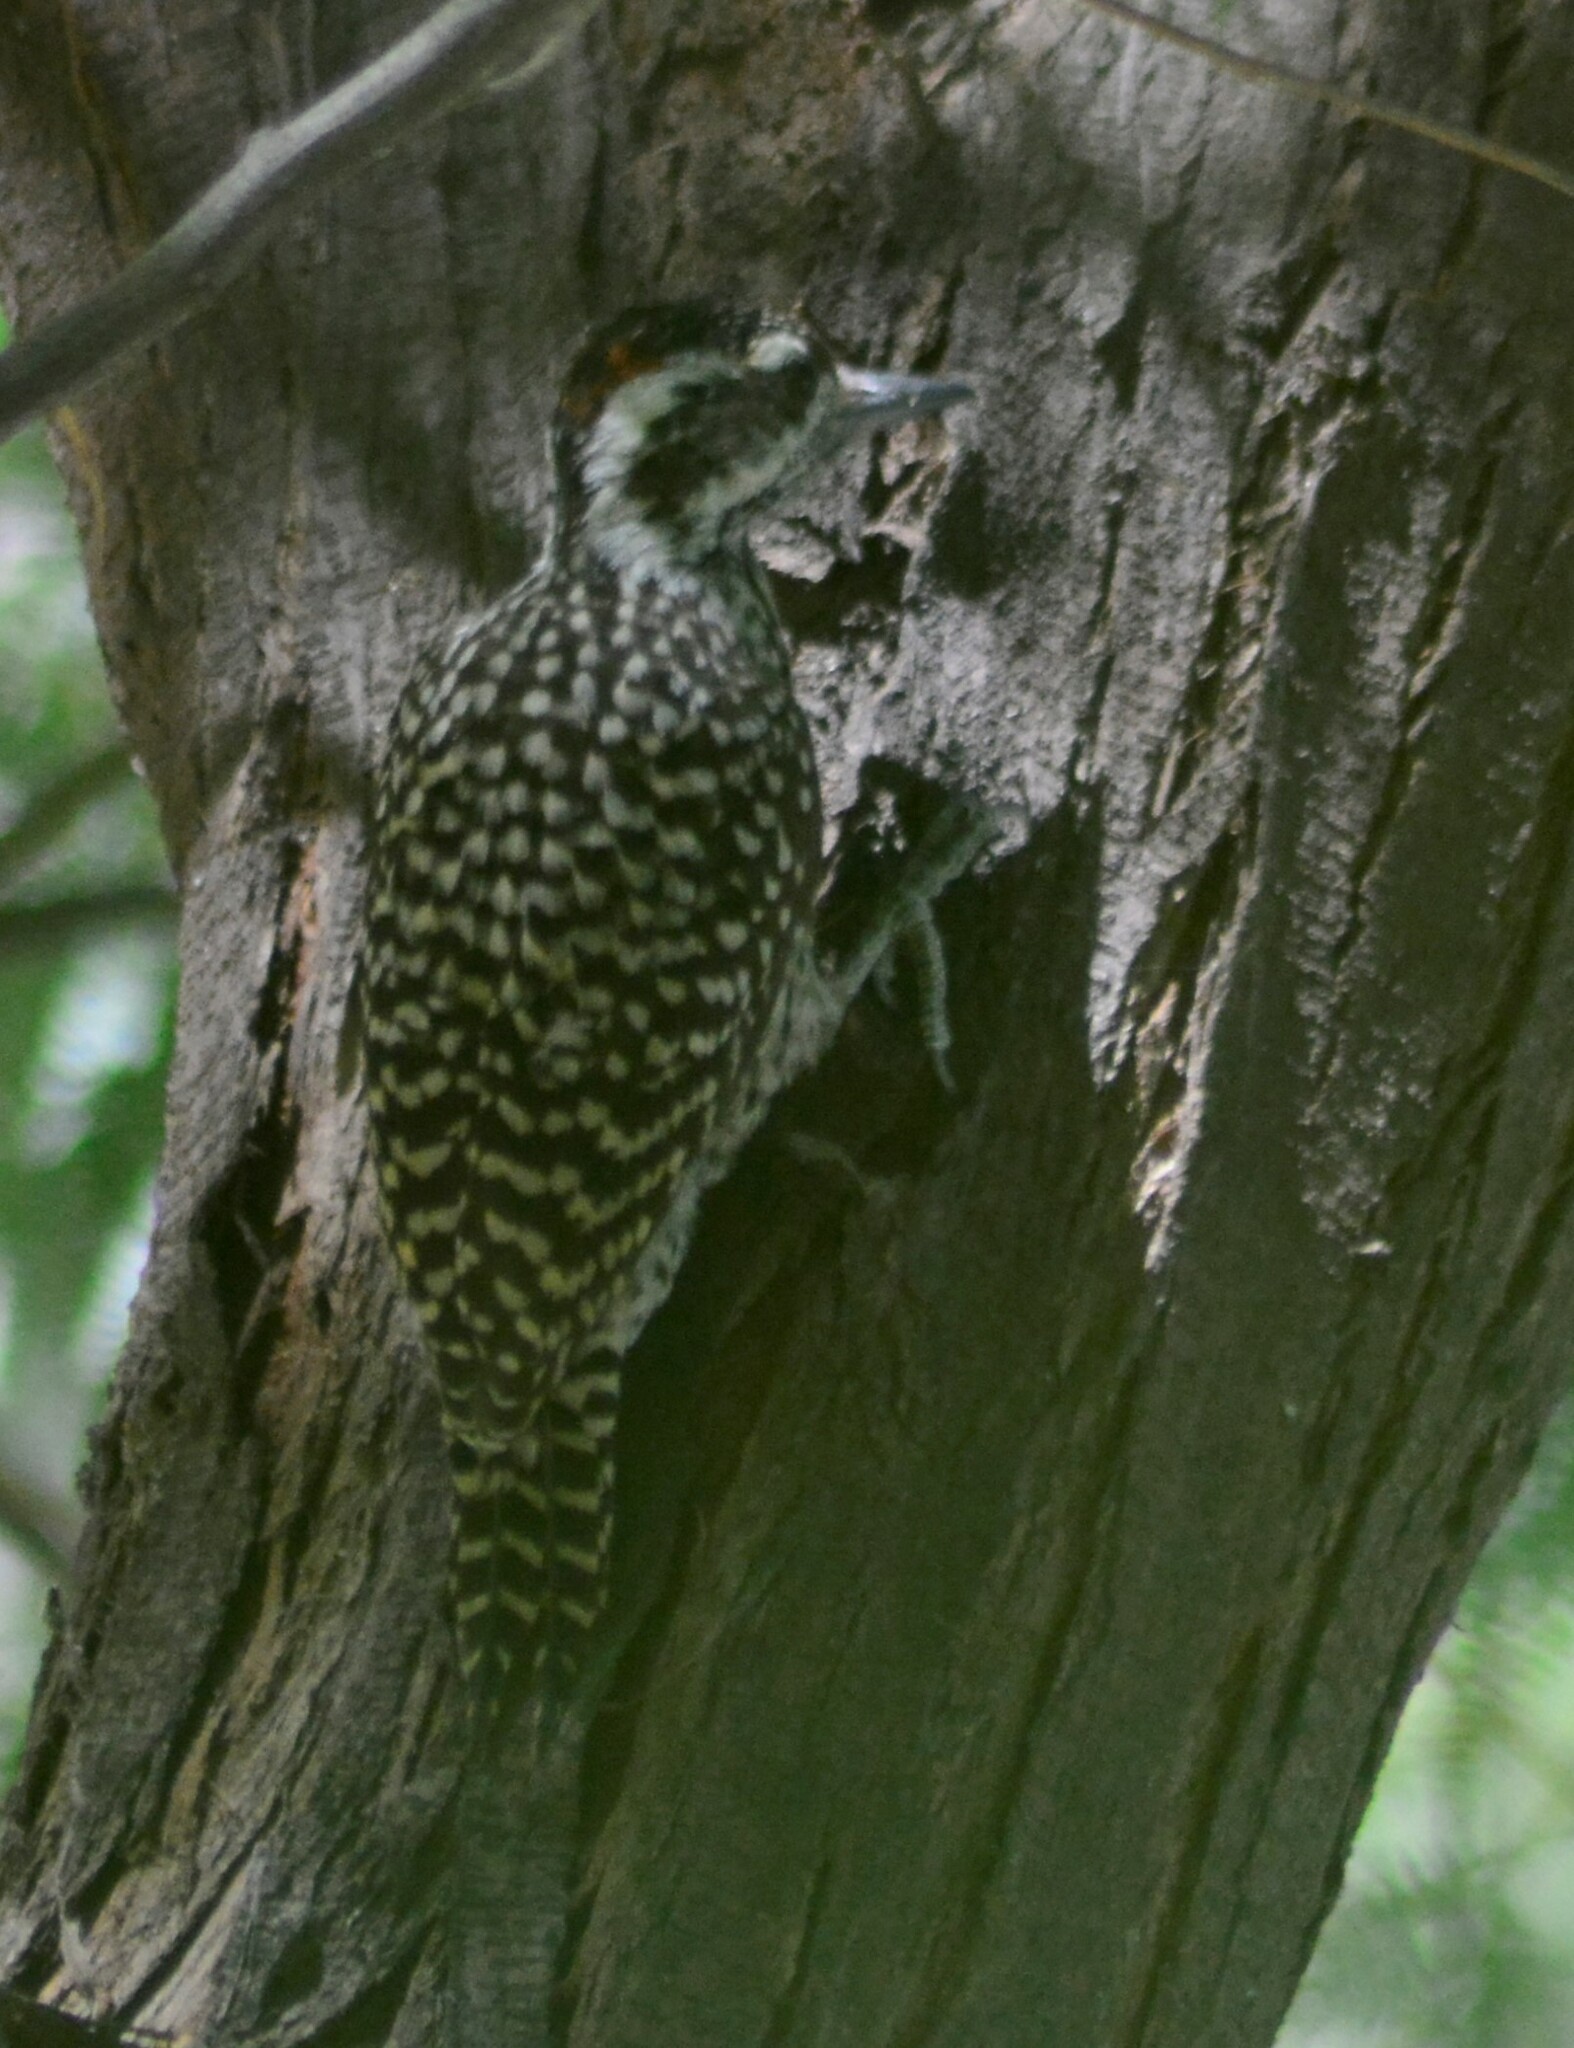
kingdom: Animalia
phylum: Chordata
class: Aves
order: Piciformes
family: Picidae
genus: Veniliornis
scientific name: Veniliornis mixtus
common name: Checkered woodpecker
